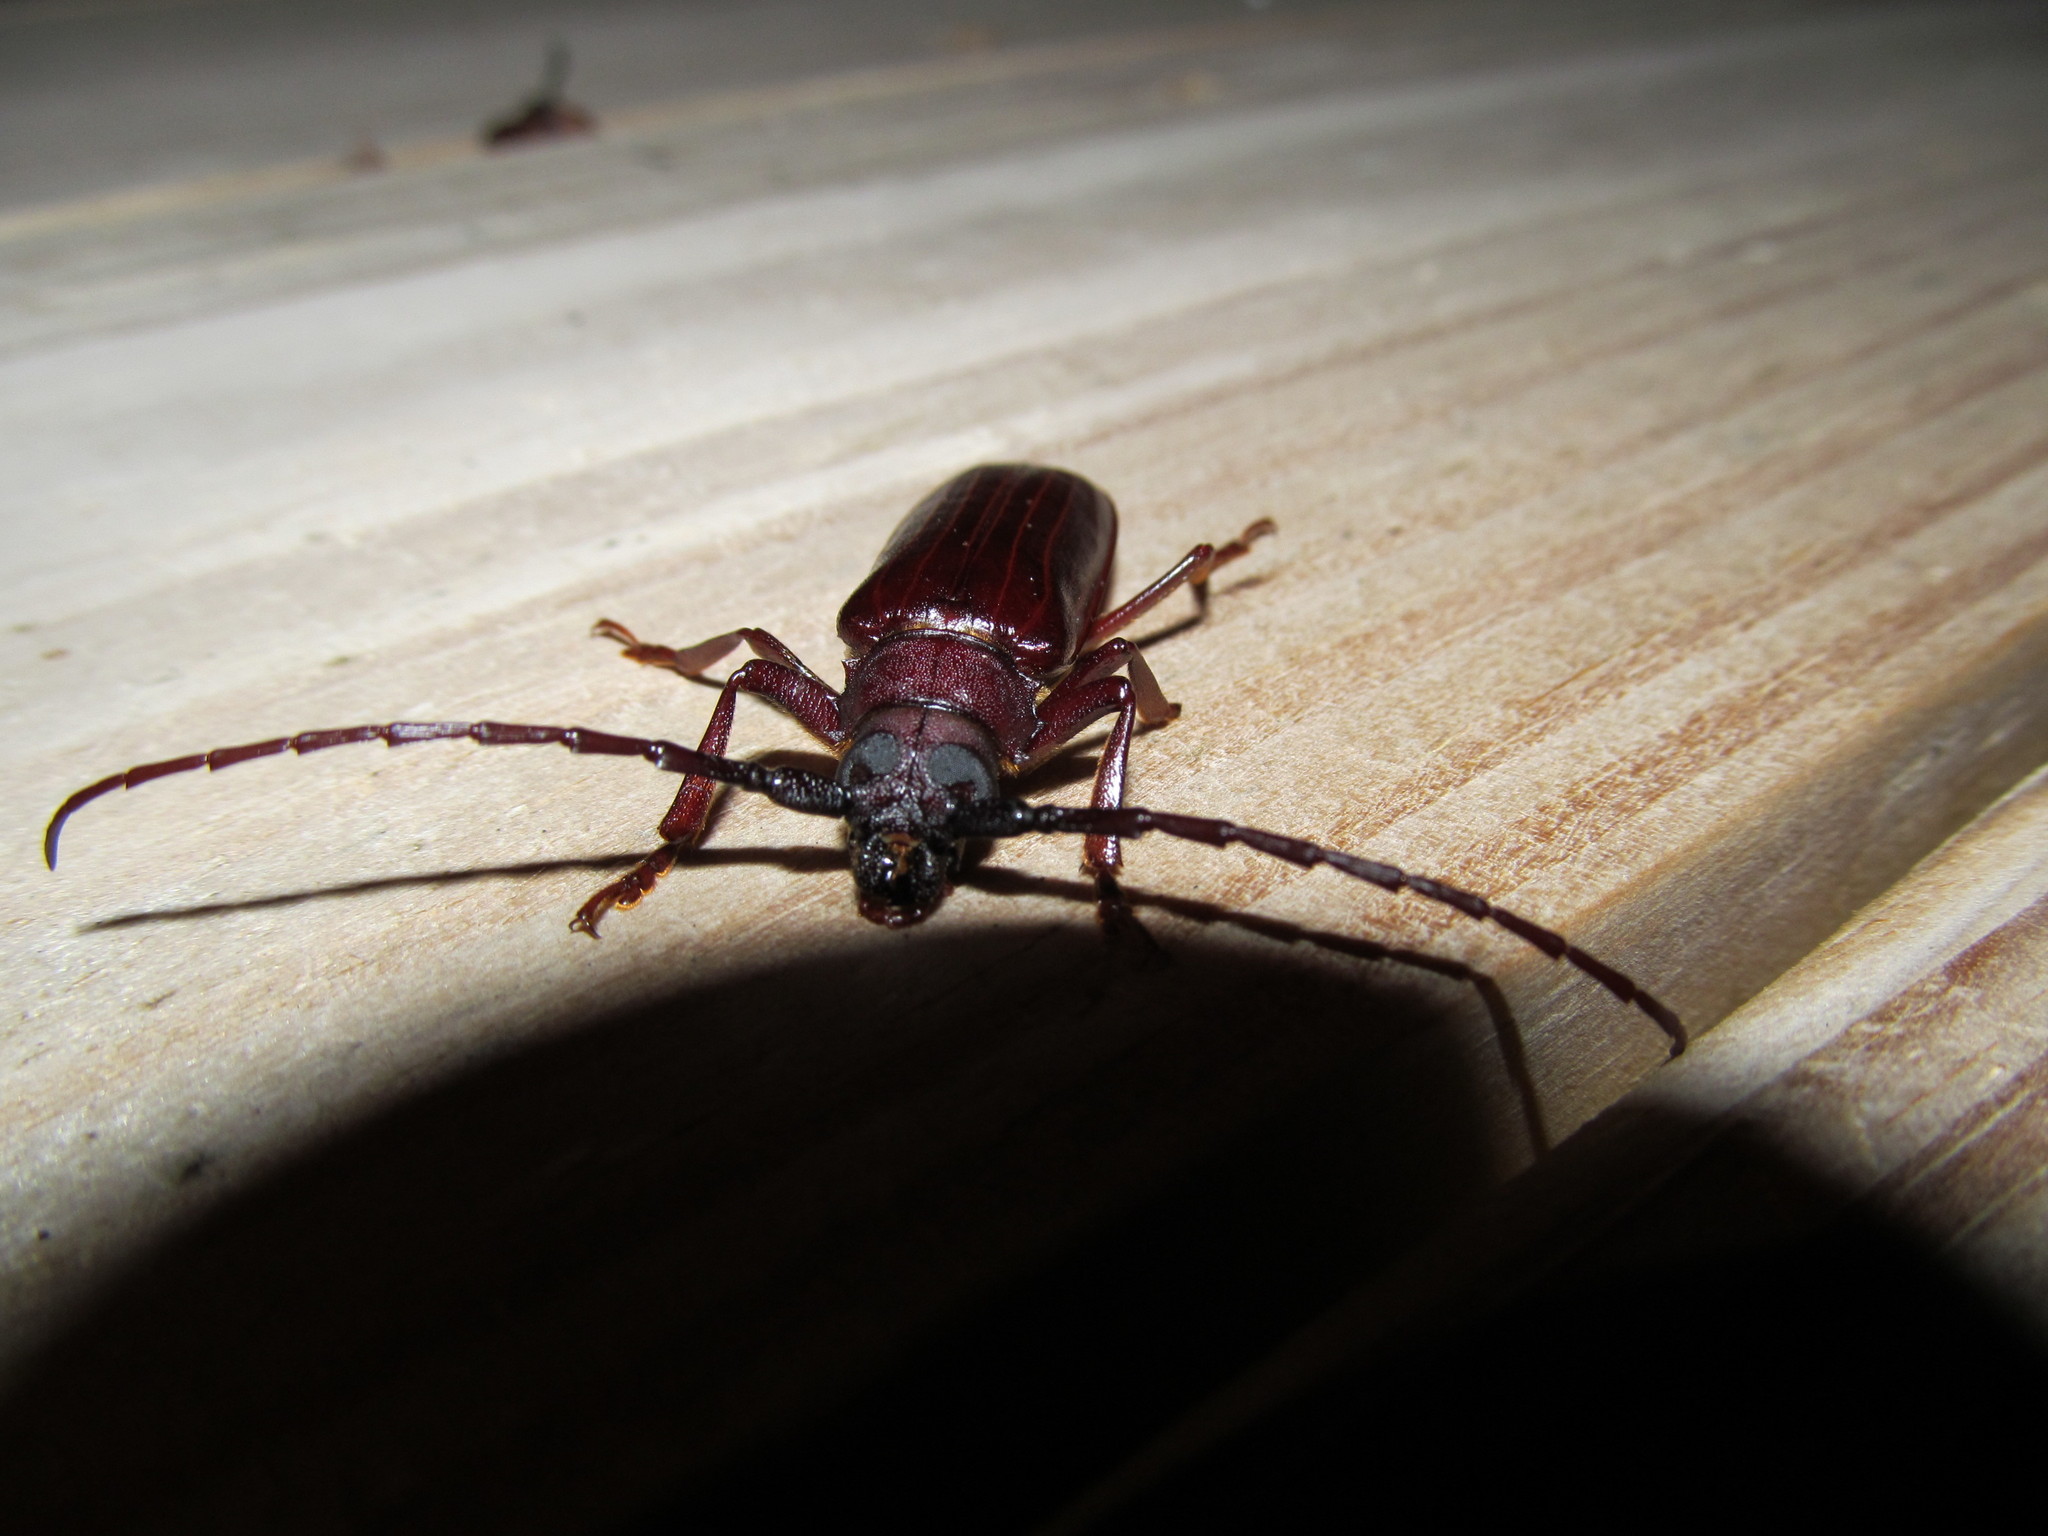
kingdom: Animalia
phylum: Arthropoda
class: Insecta
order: Coleoptera
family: Cerambycidae
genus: Orthosoma
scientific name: Orthosoma brunneum
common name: Brown prionid beetle
